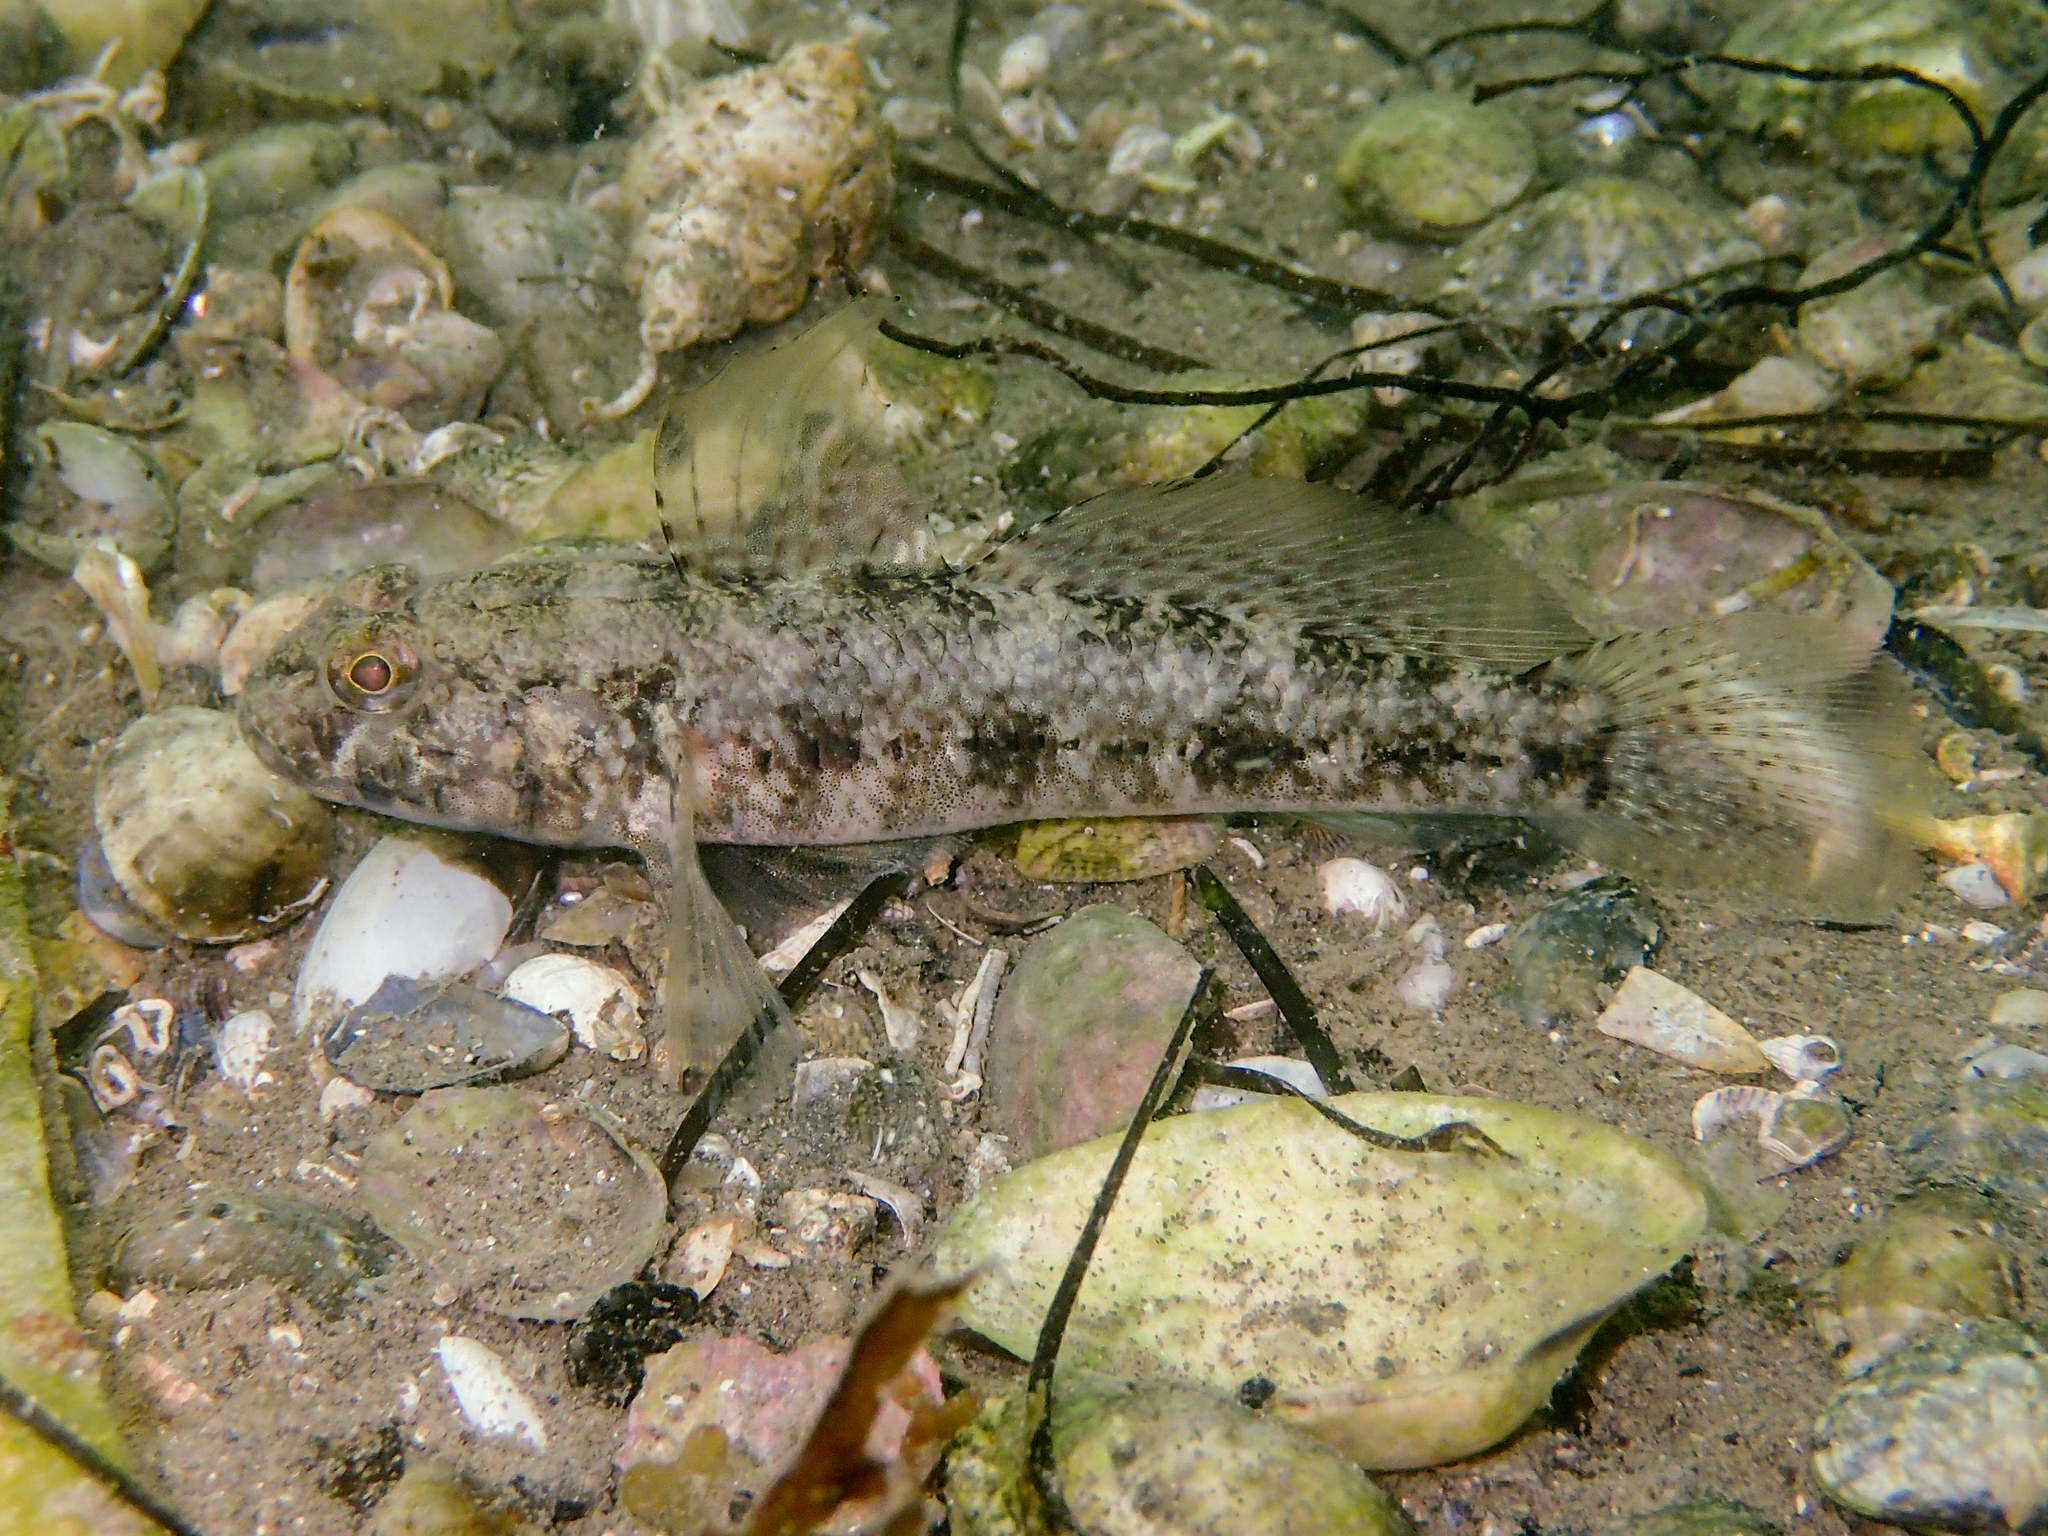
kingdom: Animalia
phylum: Chordata
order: Perciformes
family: Gobiidae
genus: Gobius
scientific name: Gobius niger
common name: Black goby
